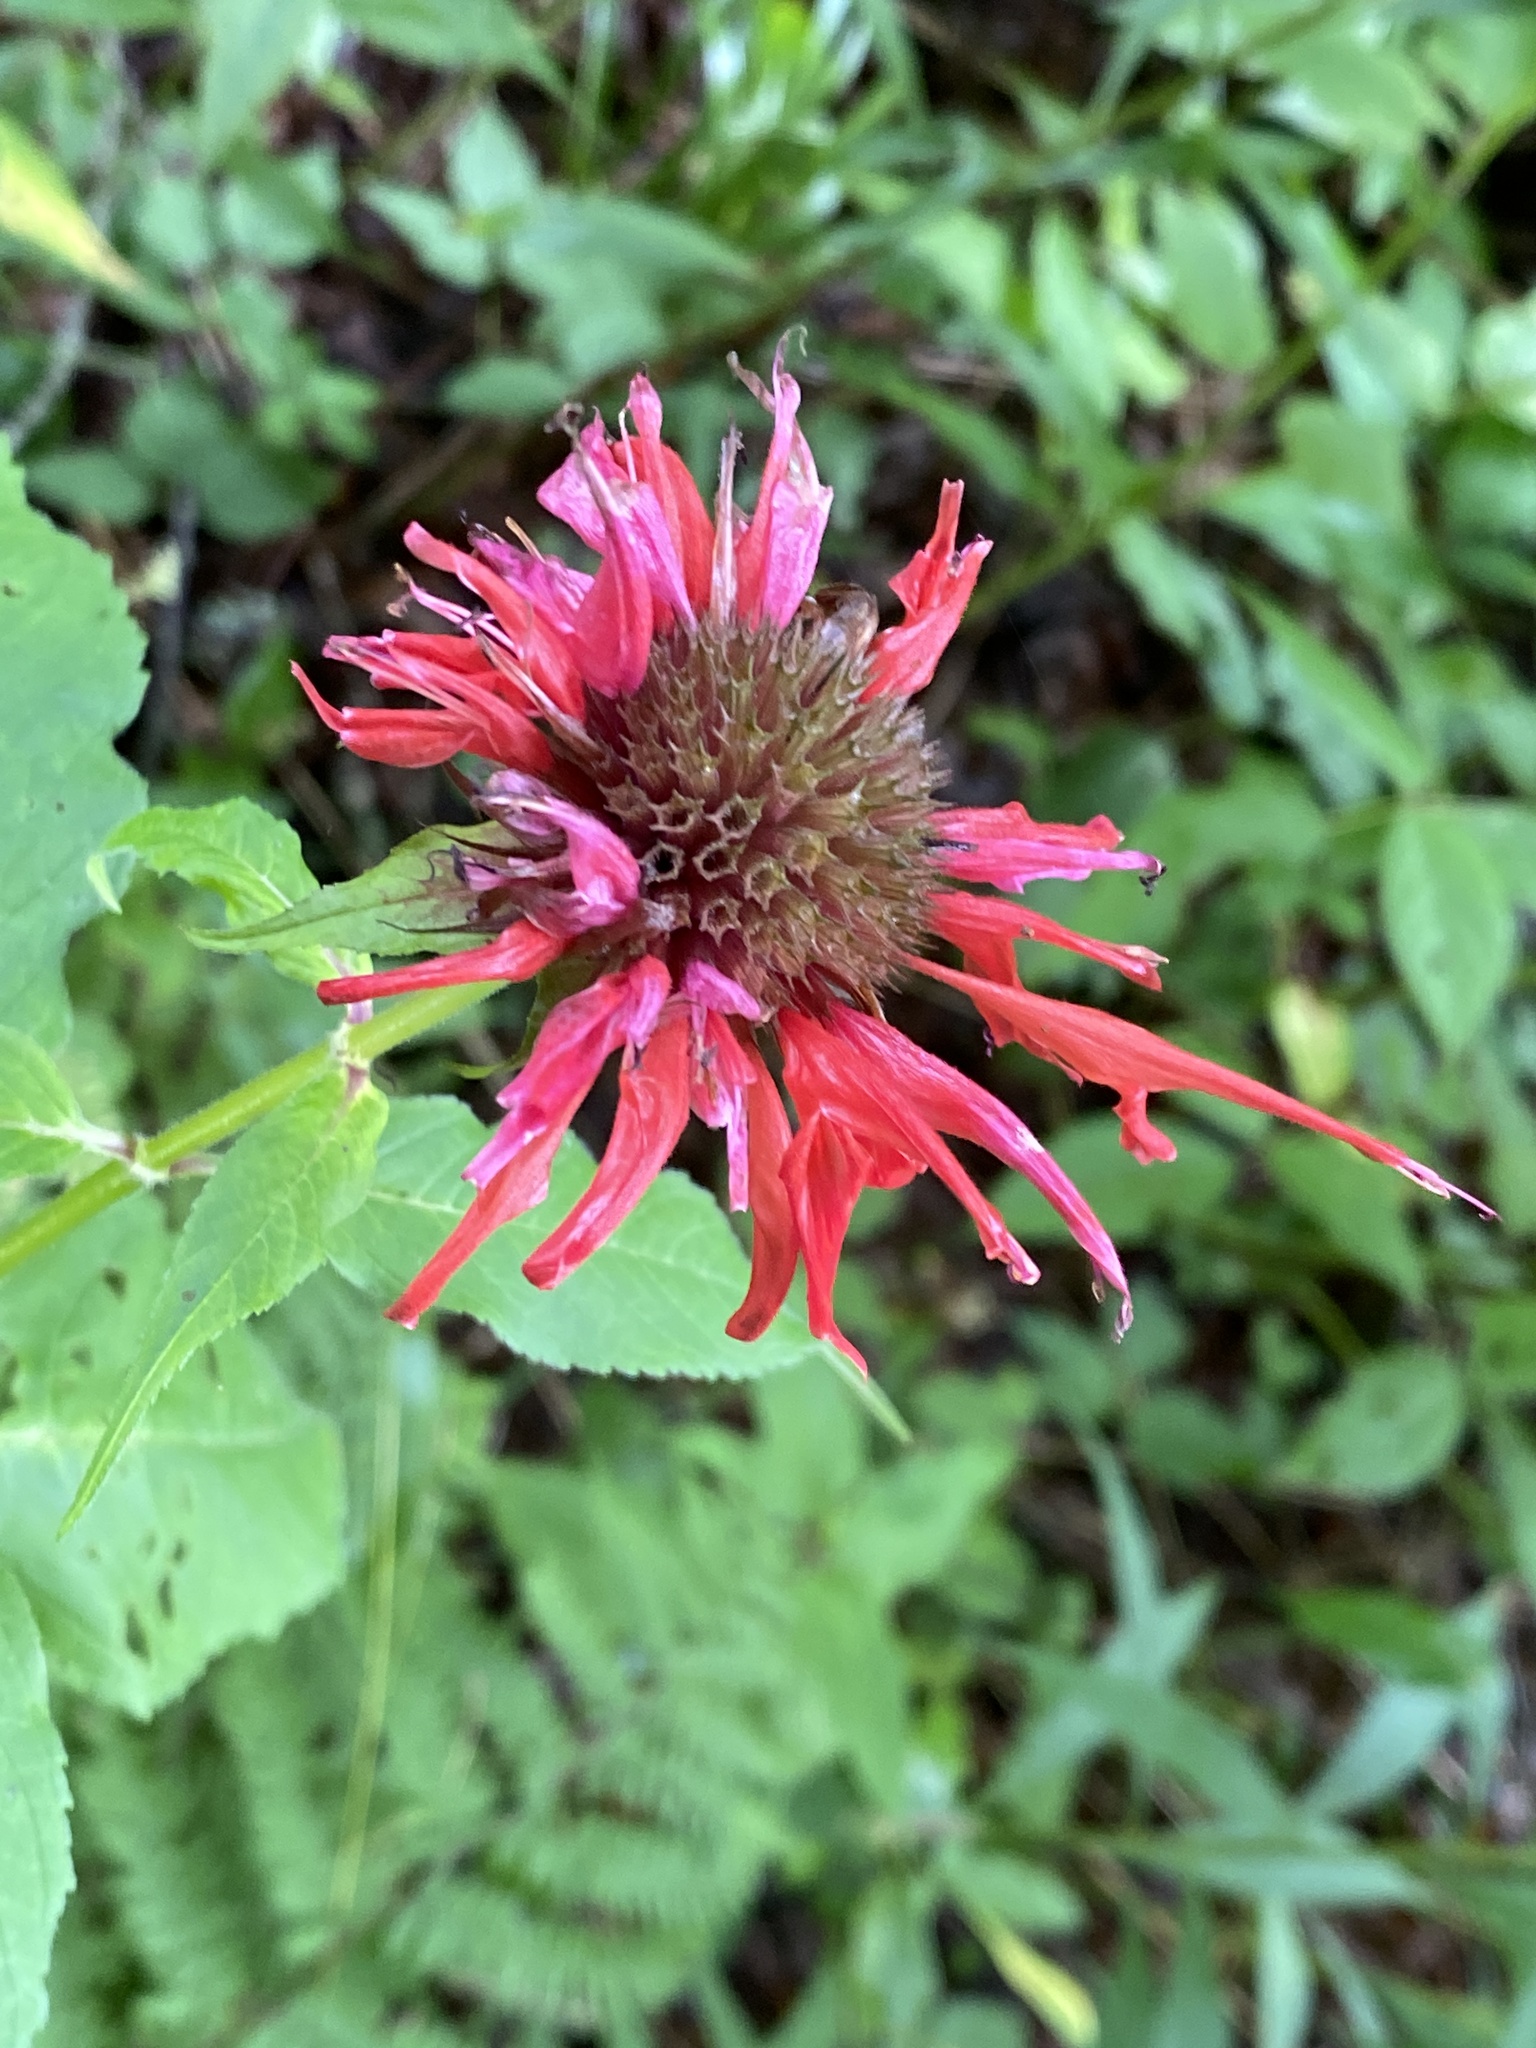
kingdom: Plantae
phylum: Tracheophyta
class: Magnoliopsida
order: Lamiales
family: Lamiaceae
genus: Monarda
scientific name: Monarda didyma
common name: Beebalm
